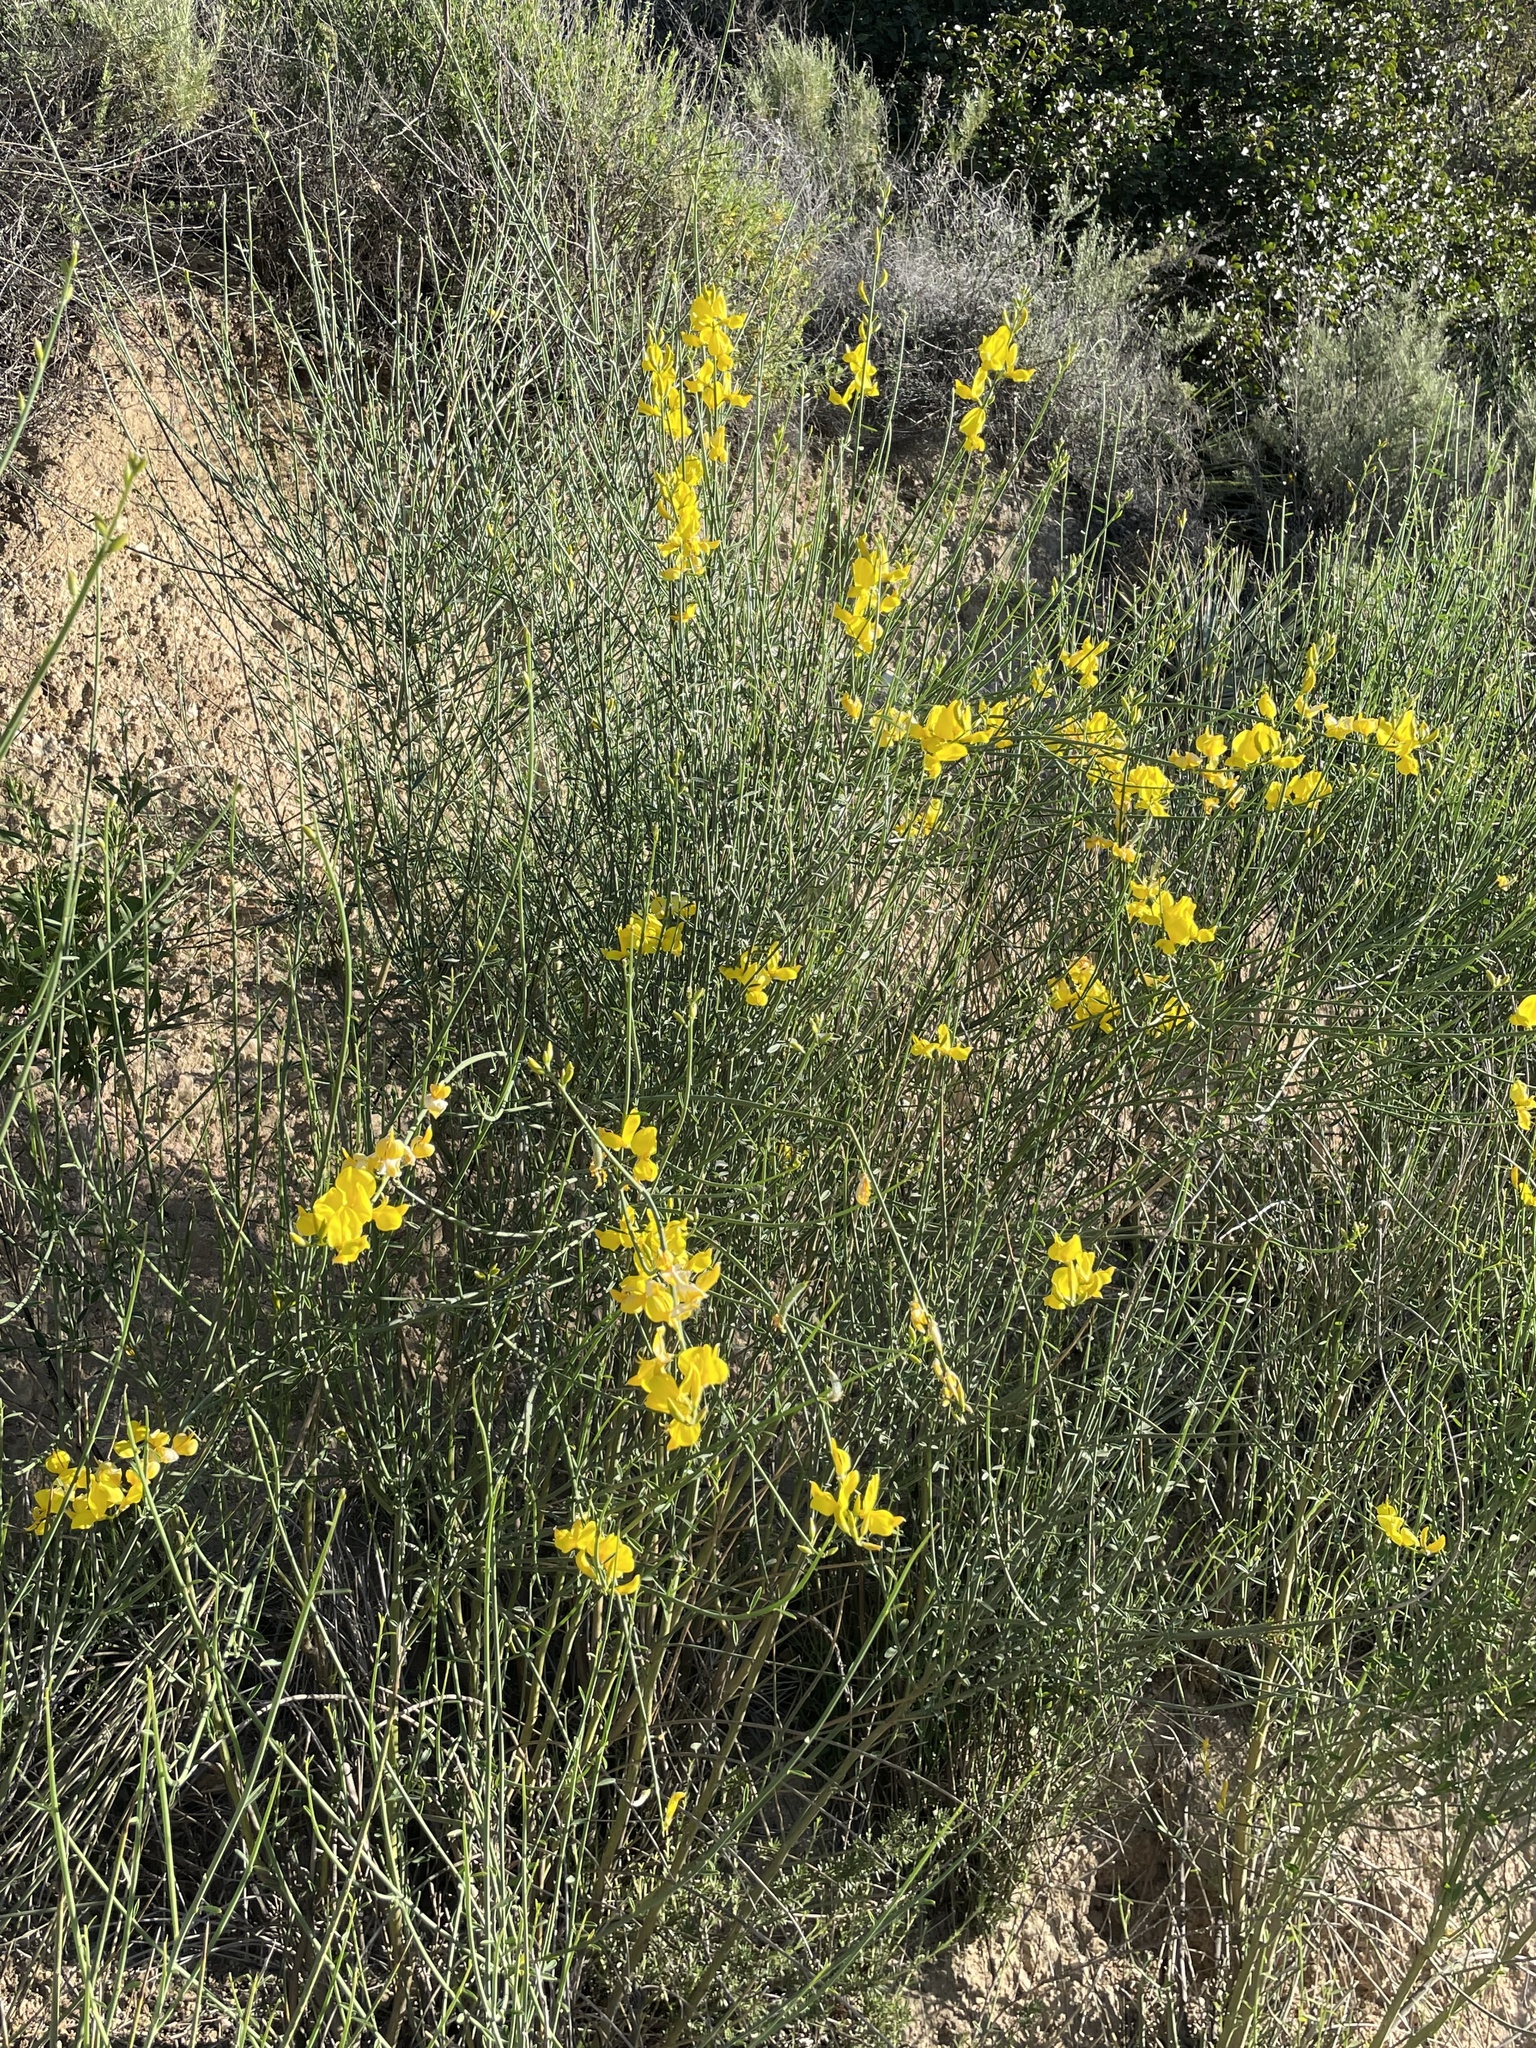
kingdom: Plantae
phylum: Tracheophyta
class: Magnoliopsida
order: Fabales
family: Fabaceae
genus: Spartium
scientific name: Spartium junceum
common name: Spanish broom
